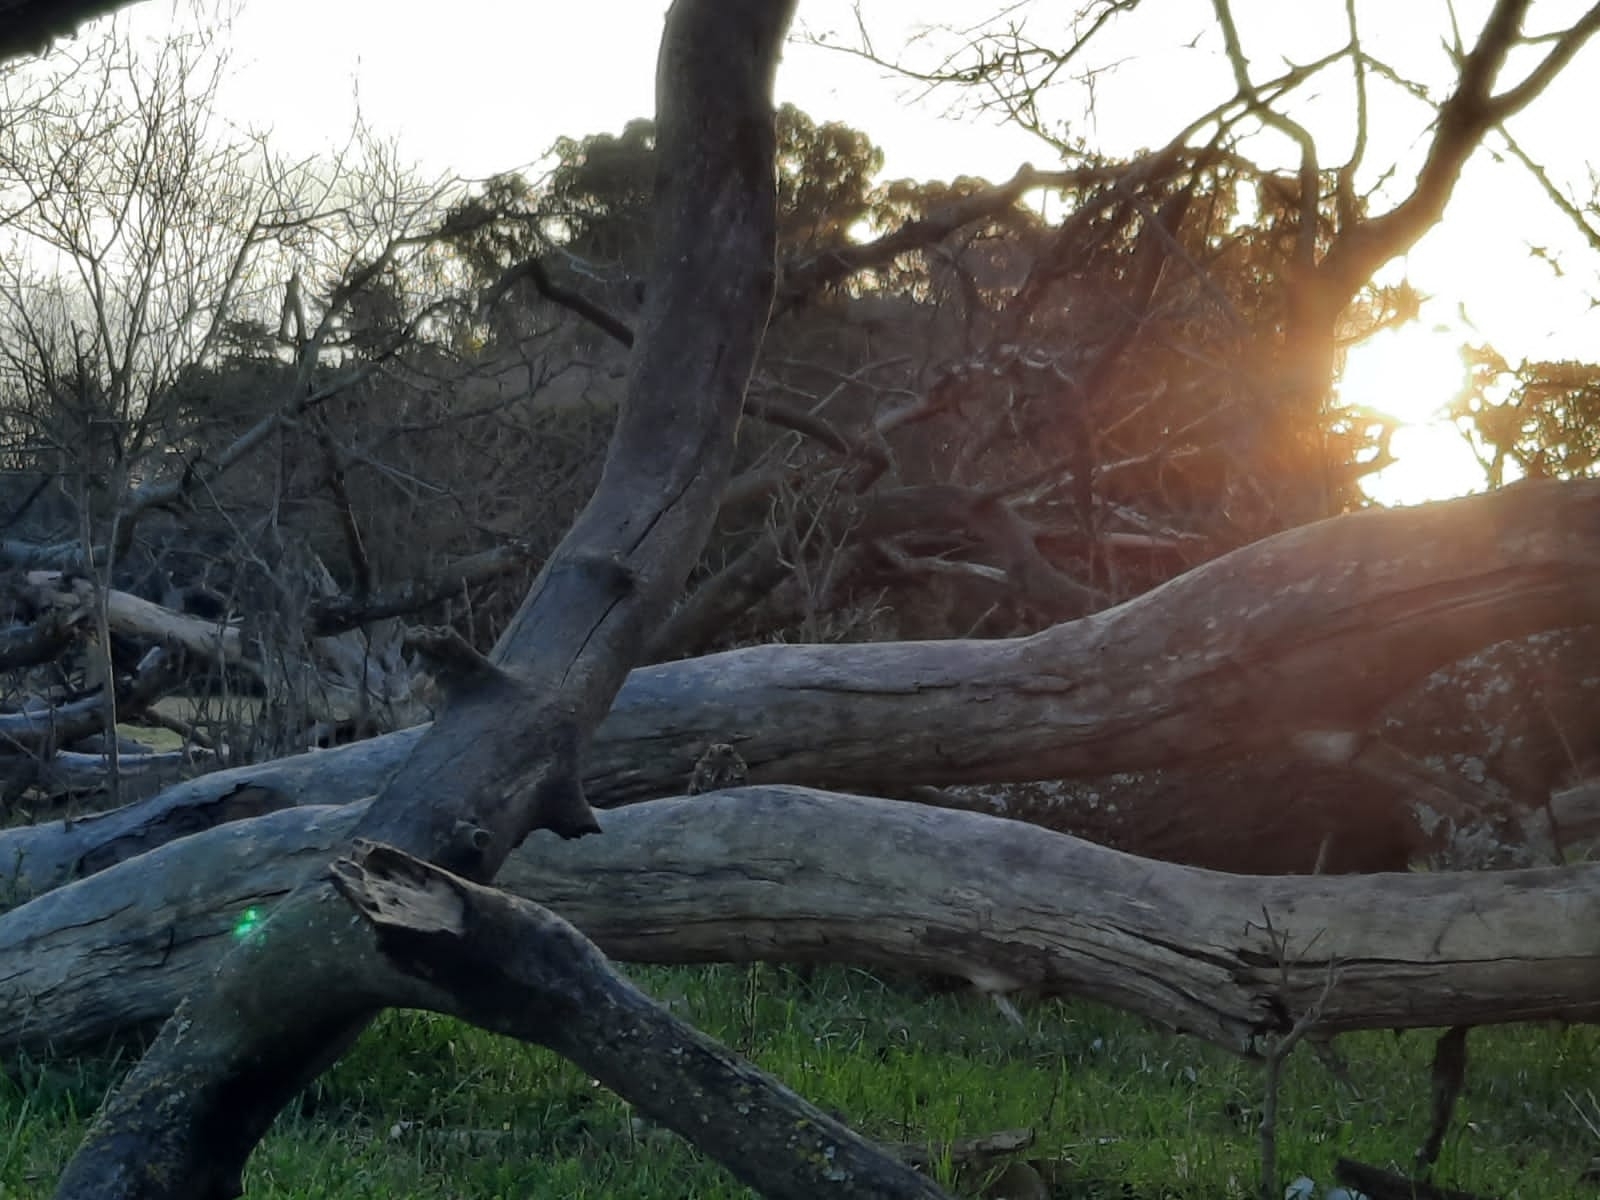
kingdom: Animalia
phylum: Chordata
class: Aves
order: Caprimulgiformes
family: Caprimulgidae
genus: Systellura
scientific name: Systellura longirostris
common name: Band-winged nightjar
